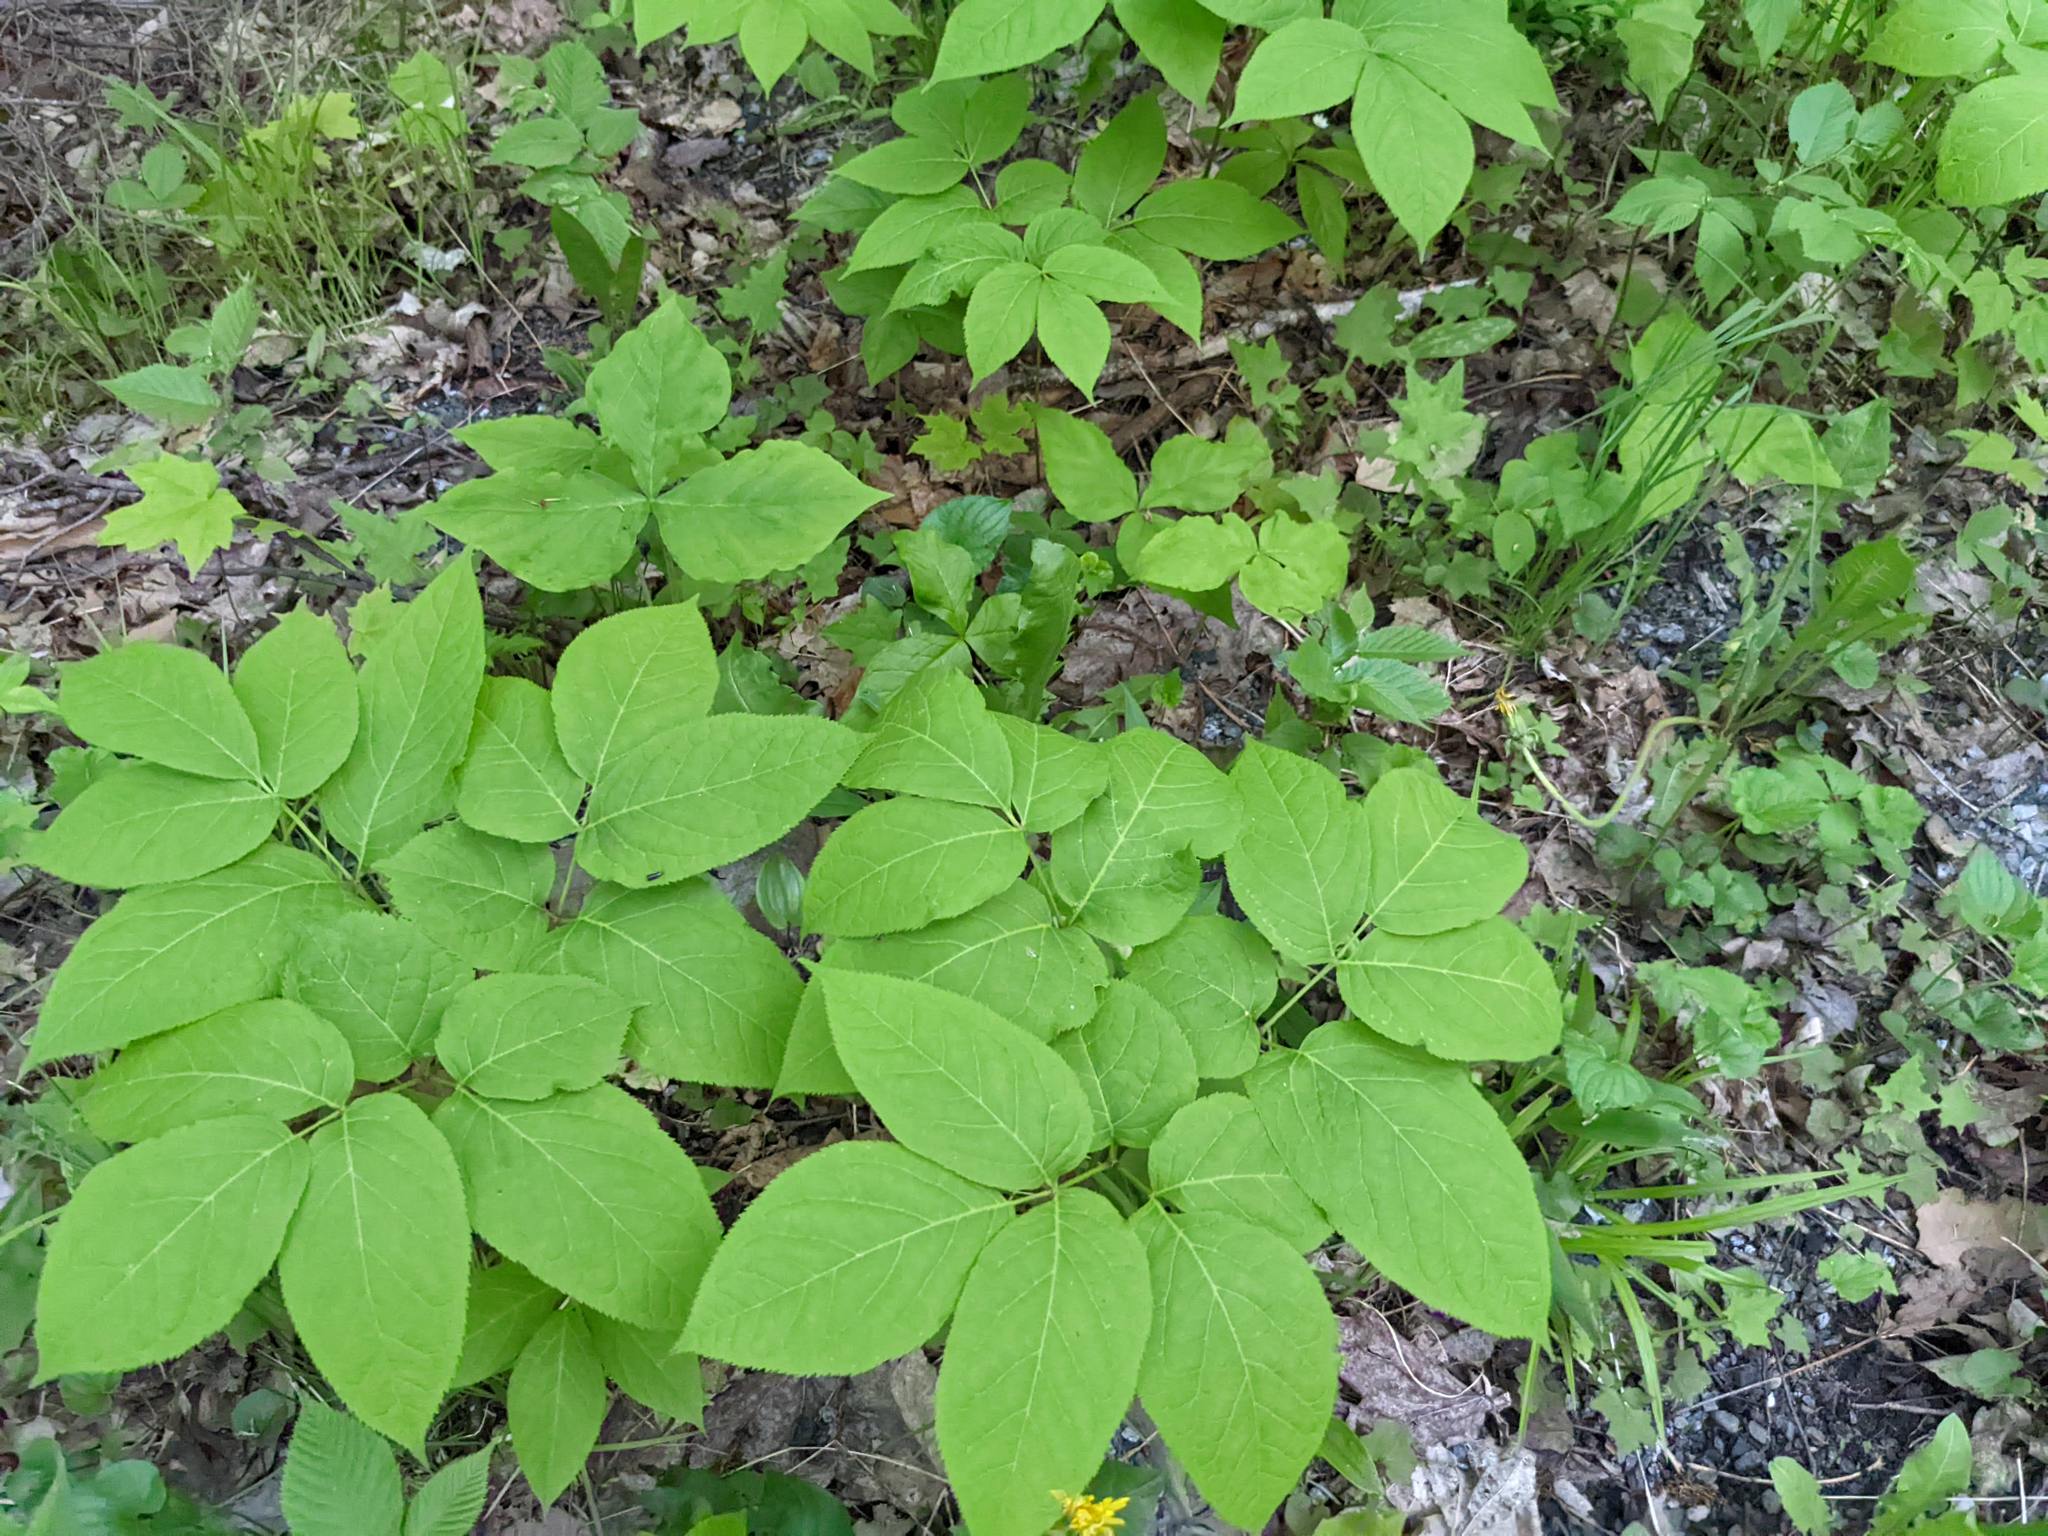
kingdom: Plantae
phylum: Tracheophyta
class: Magnoliopsida
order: Apiales
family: Araliaceae
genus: Aralia
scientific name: Aralia nudicaulis
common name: Wild sarsaparilla
